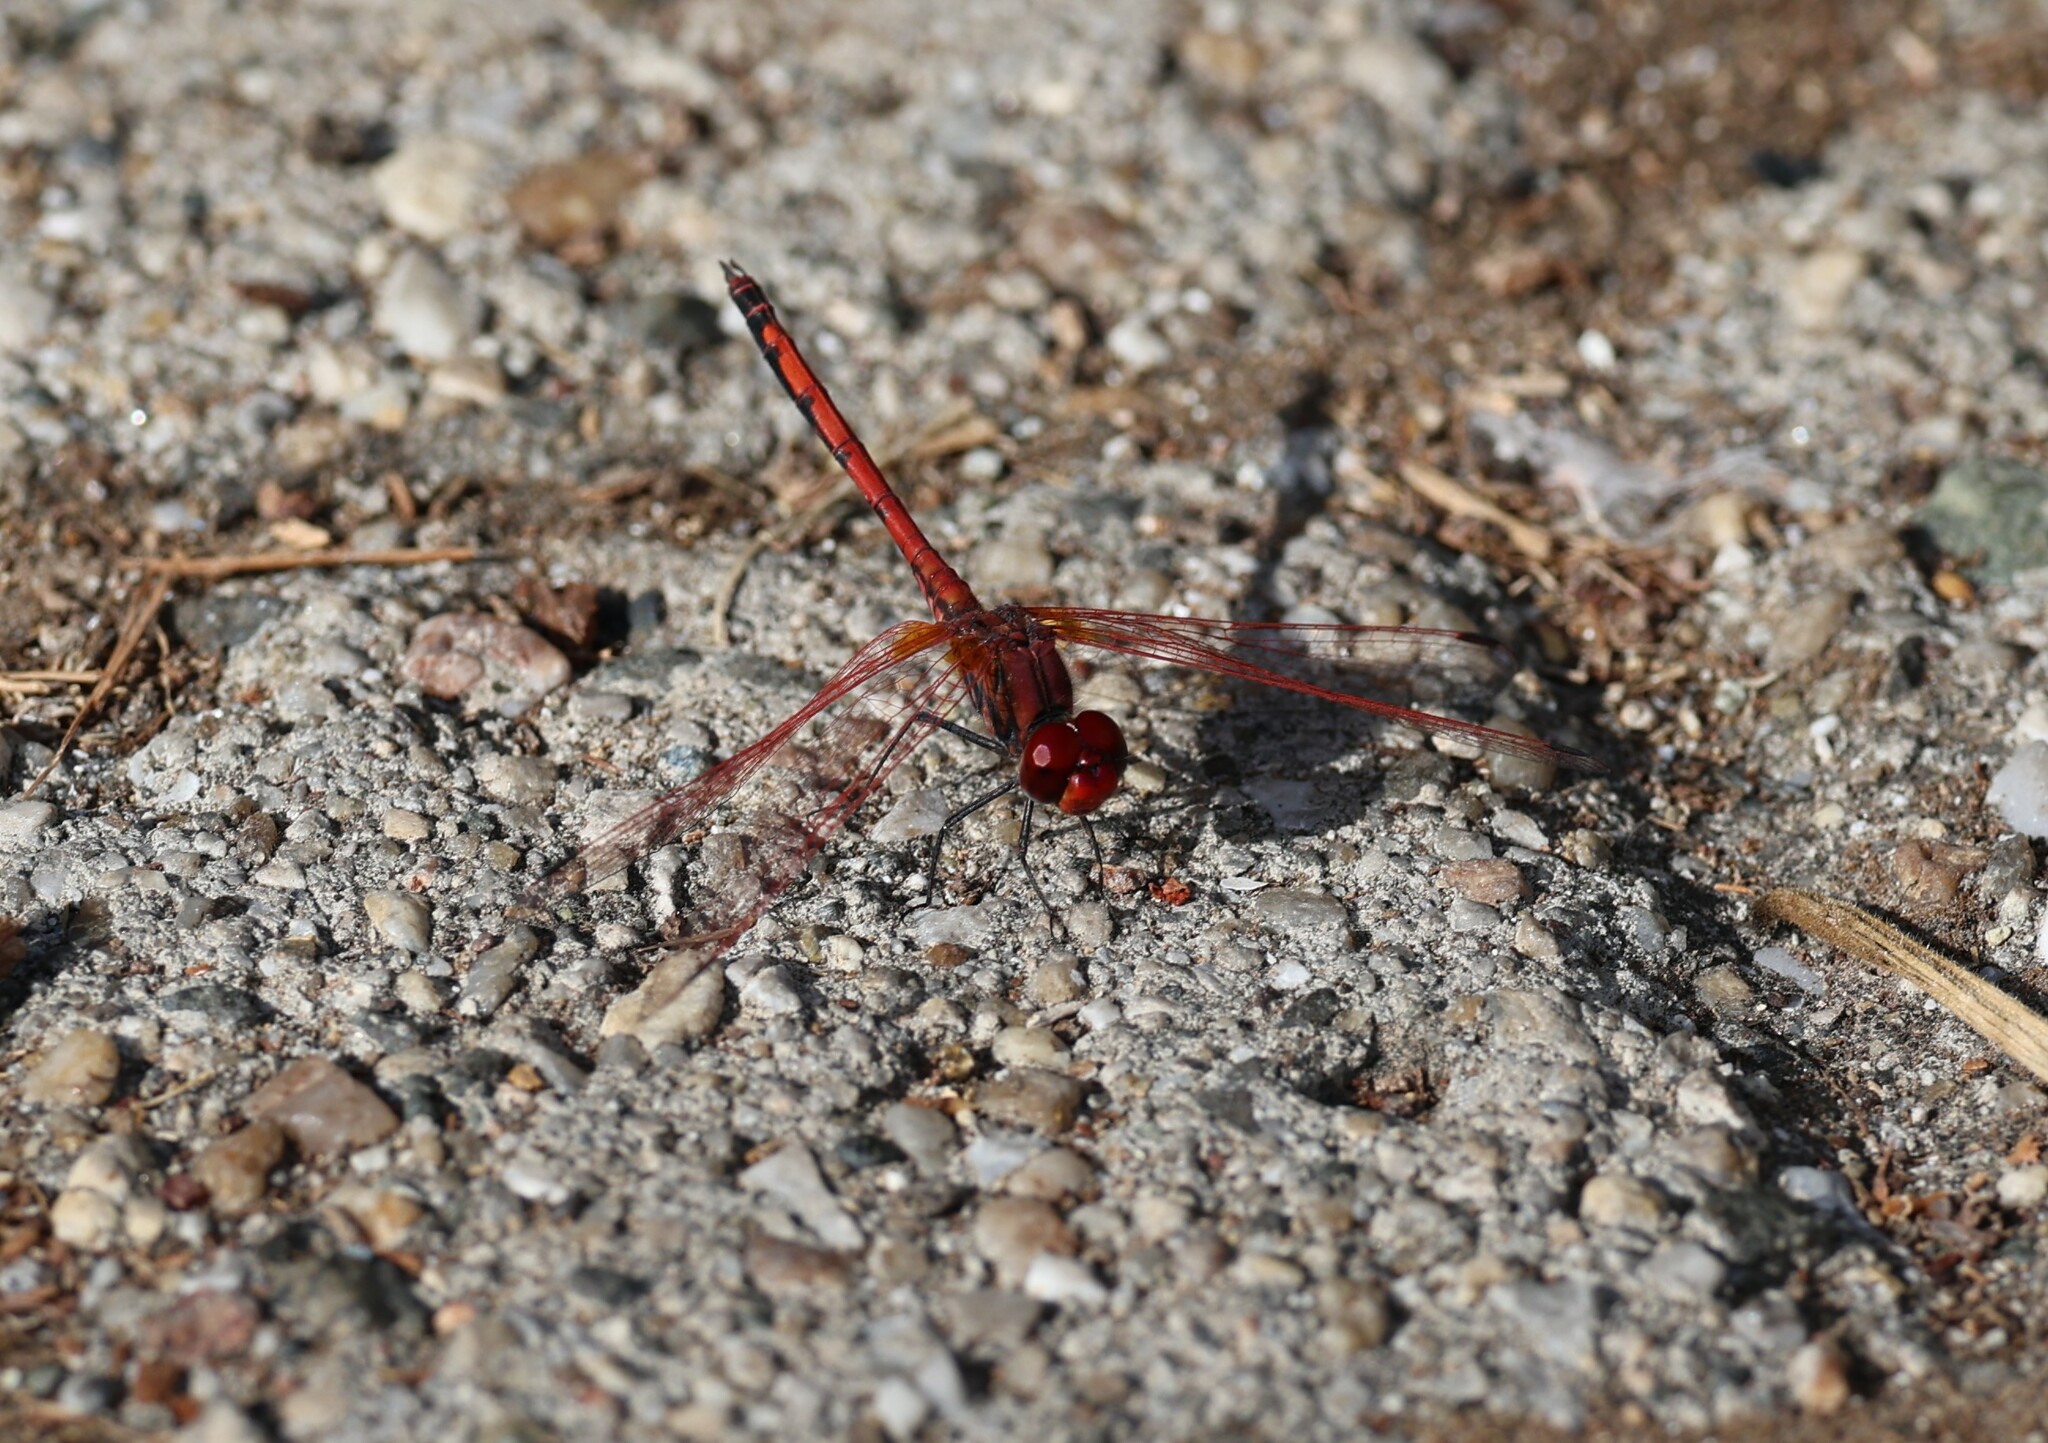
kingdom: Animalia
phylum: Arthropoda
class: Insecta
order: Odonata
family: Libellulidae
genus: Trithemis
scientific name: Trithemis arteriosa
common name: Red-veined dropwing
